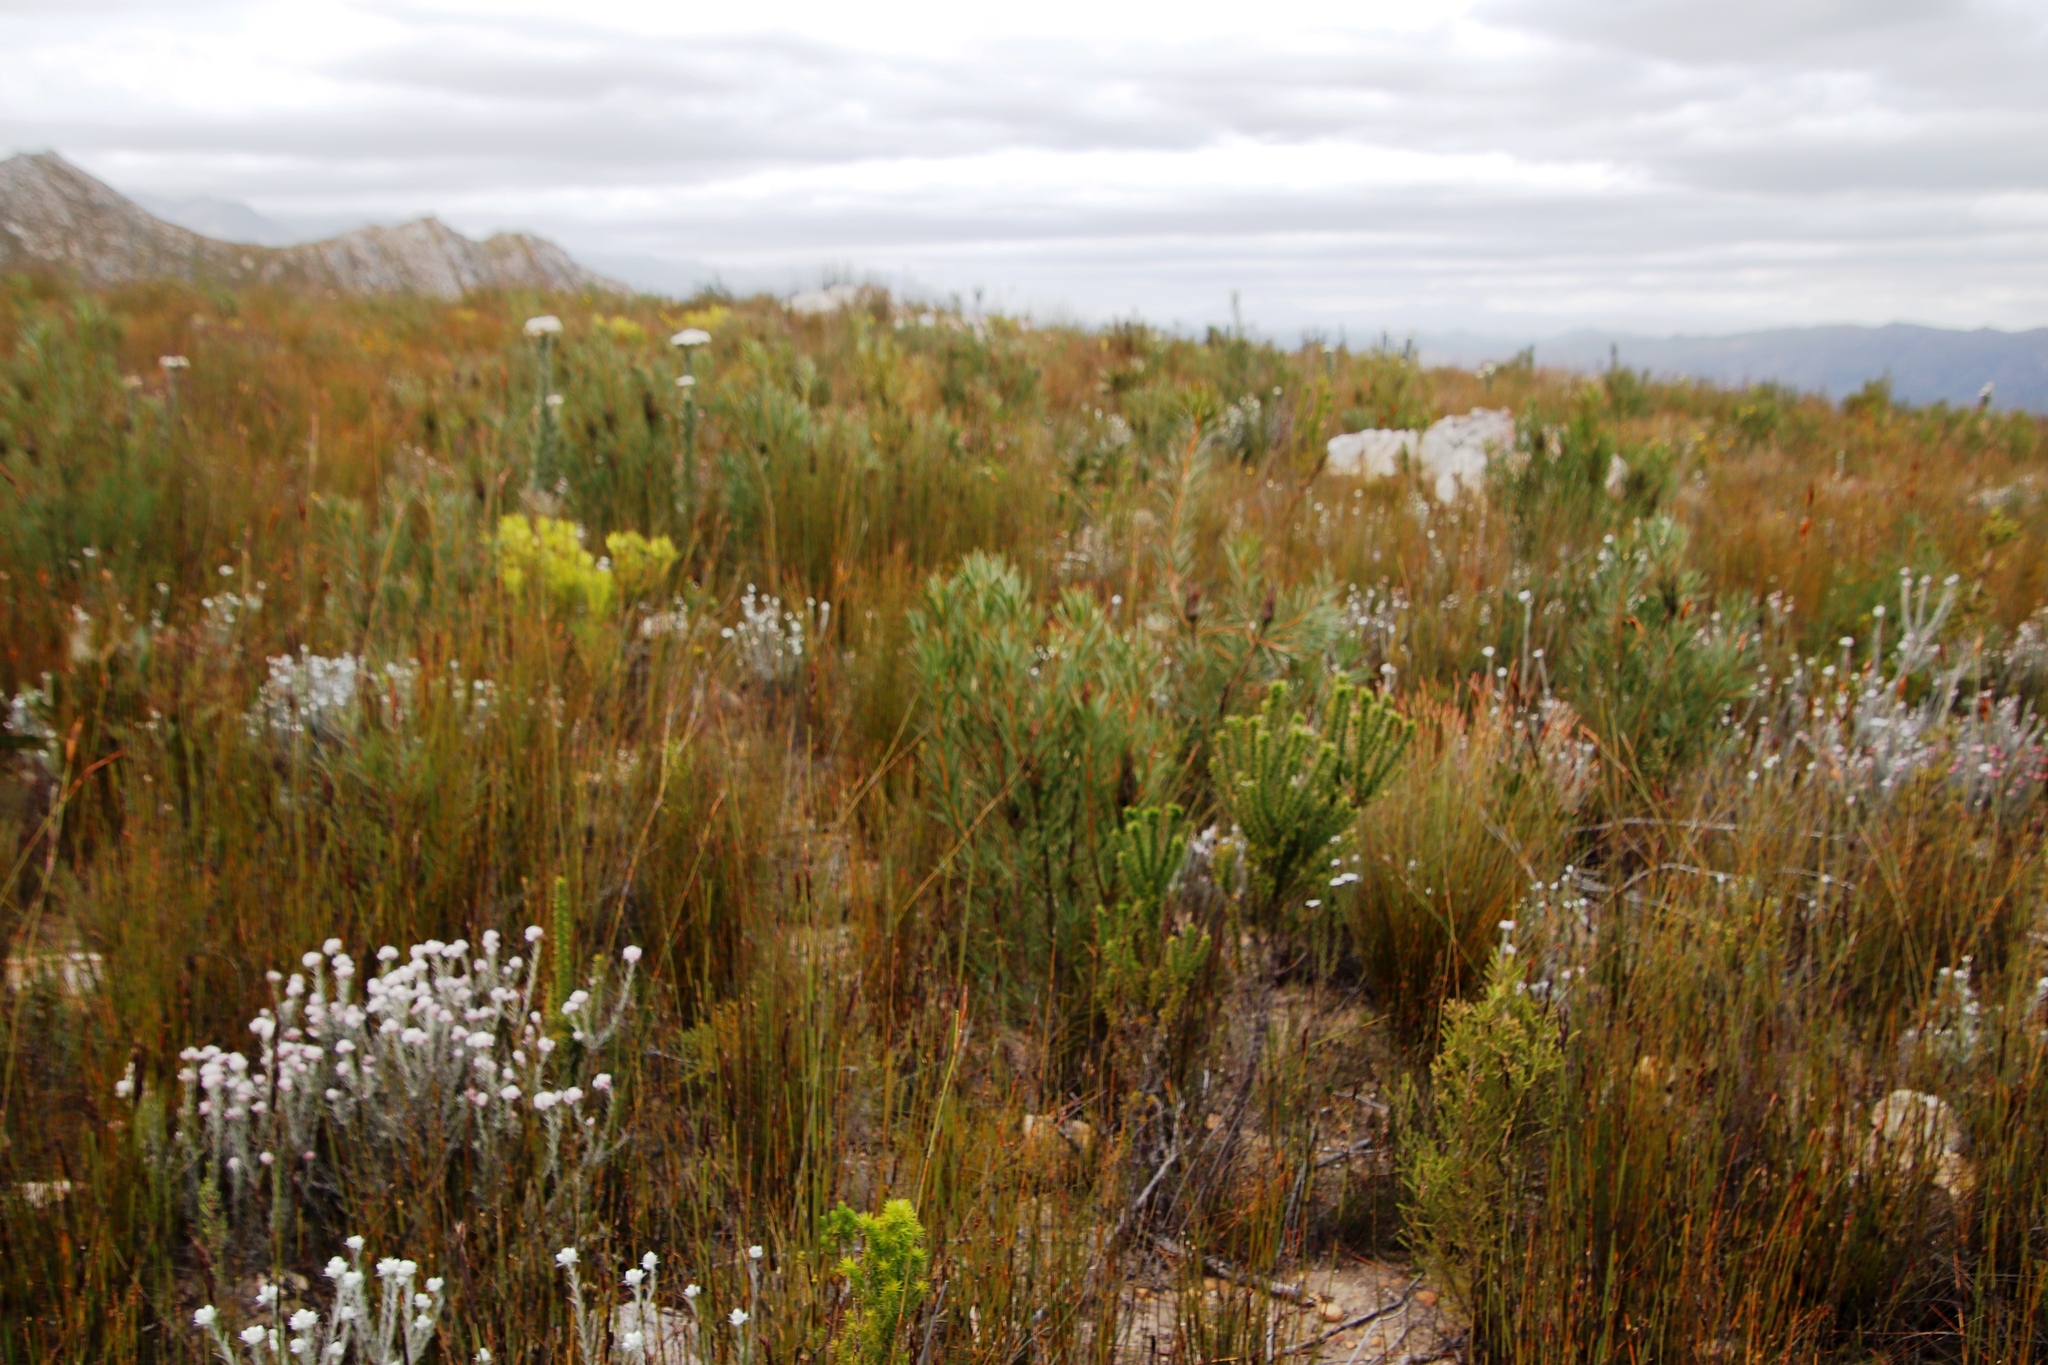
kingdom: Plantae
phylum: Tracheophyta
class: Magnoliopsida
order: Proteales
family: Proteaceae
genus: Protea
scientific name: Protea repens
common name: Sugarbush
